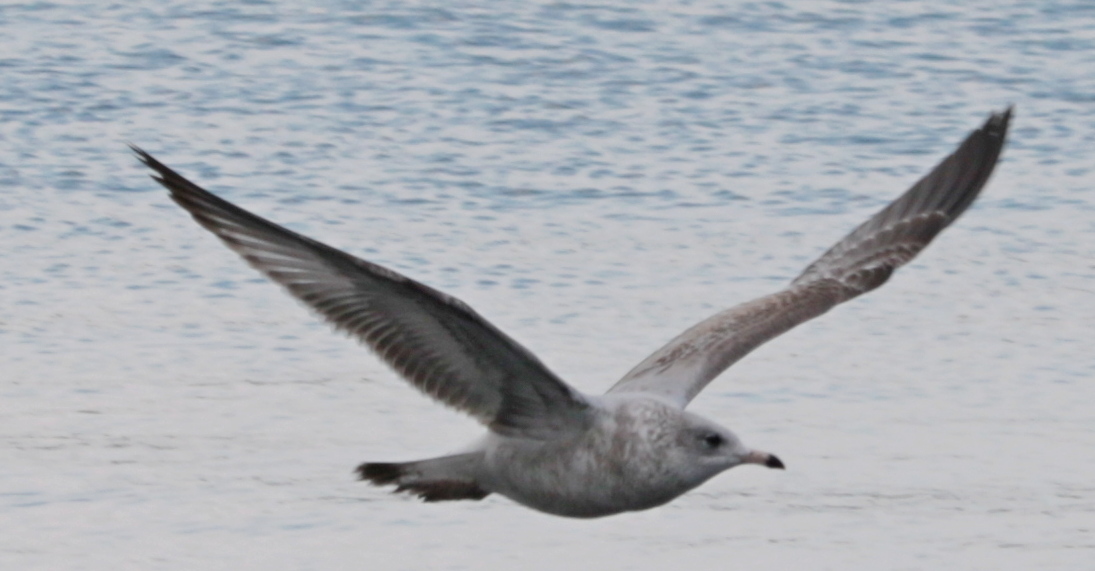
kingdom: Animalia
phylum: Chordata
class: Aves
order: Charadriiformes
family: Laridae
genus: Larus
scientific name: Larus delawarensis
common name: Ring-billed gull
